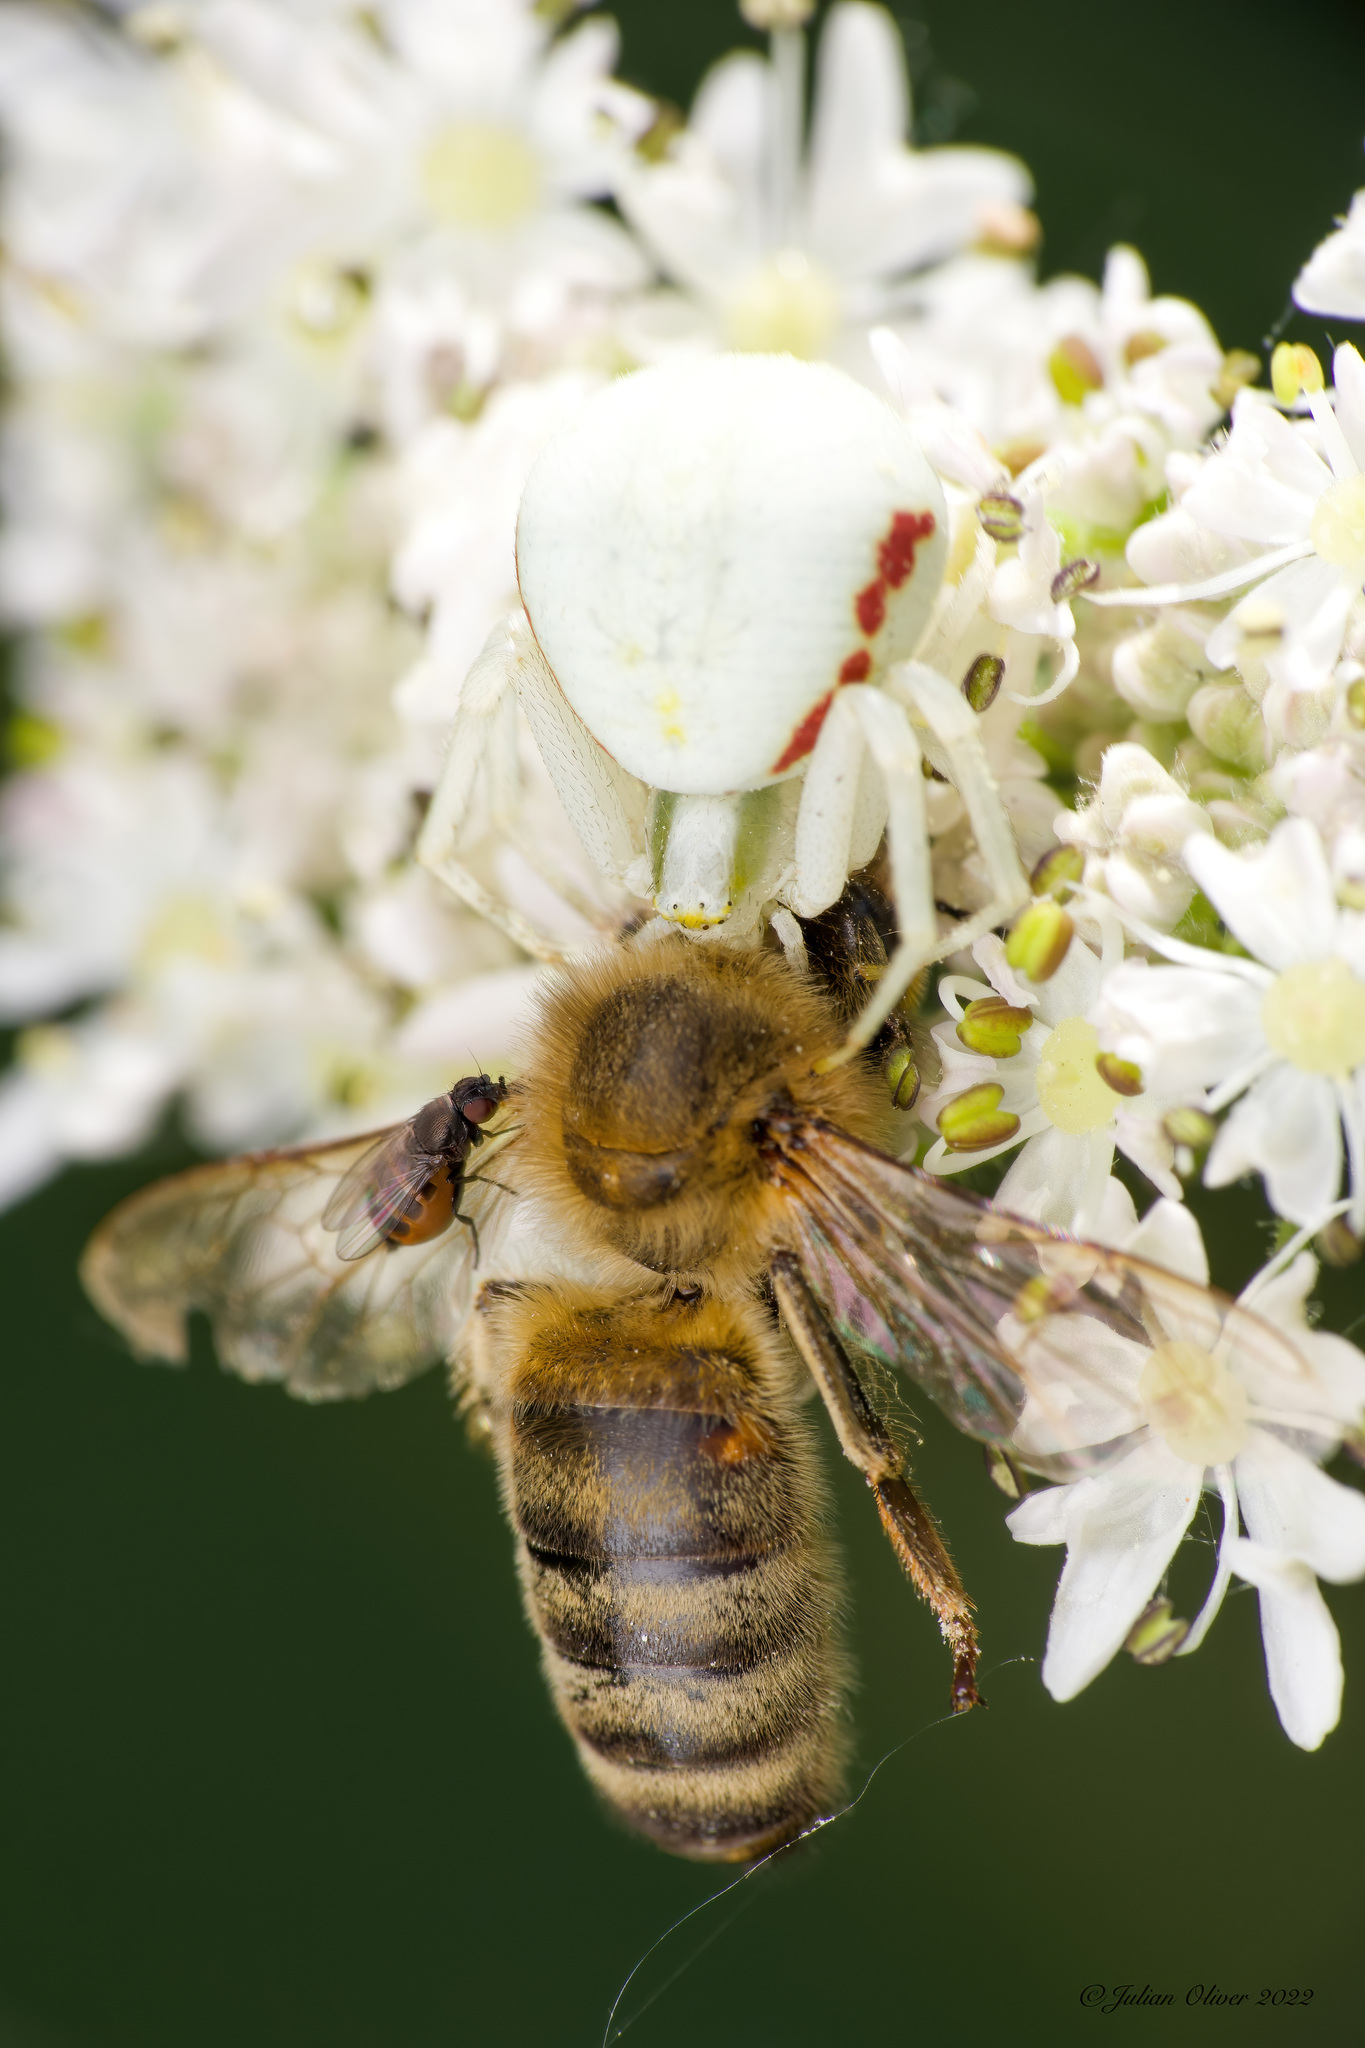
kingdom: Animalia
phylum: Arthropoda
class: Arachnida
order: Araneae
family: Thomisidae
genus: Misumena
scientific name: Misumena vatia
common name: Goldenrod crab spider
